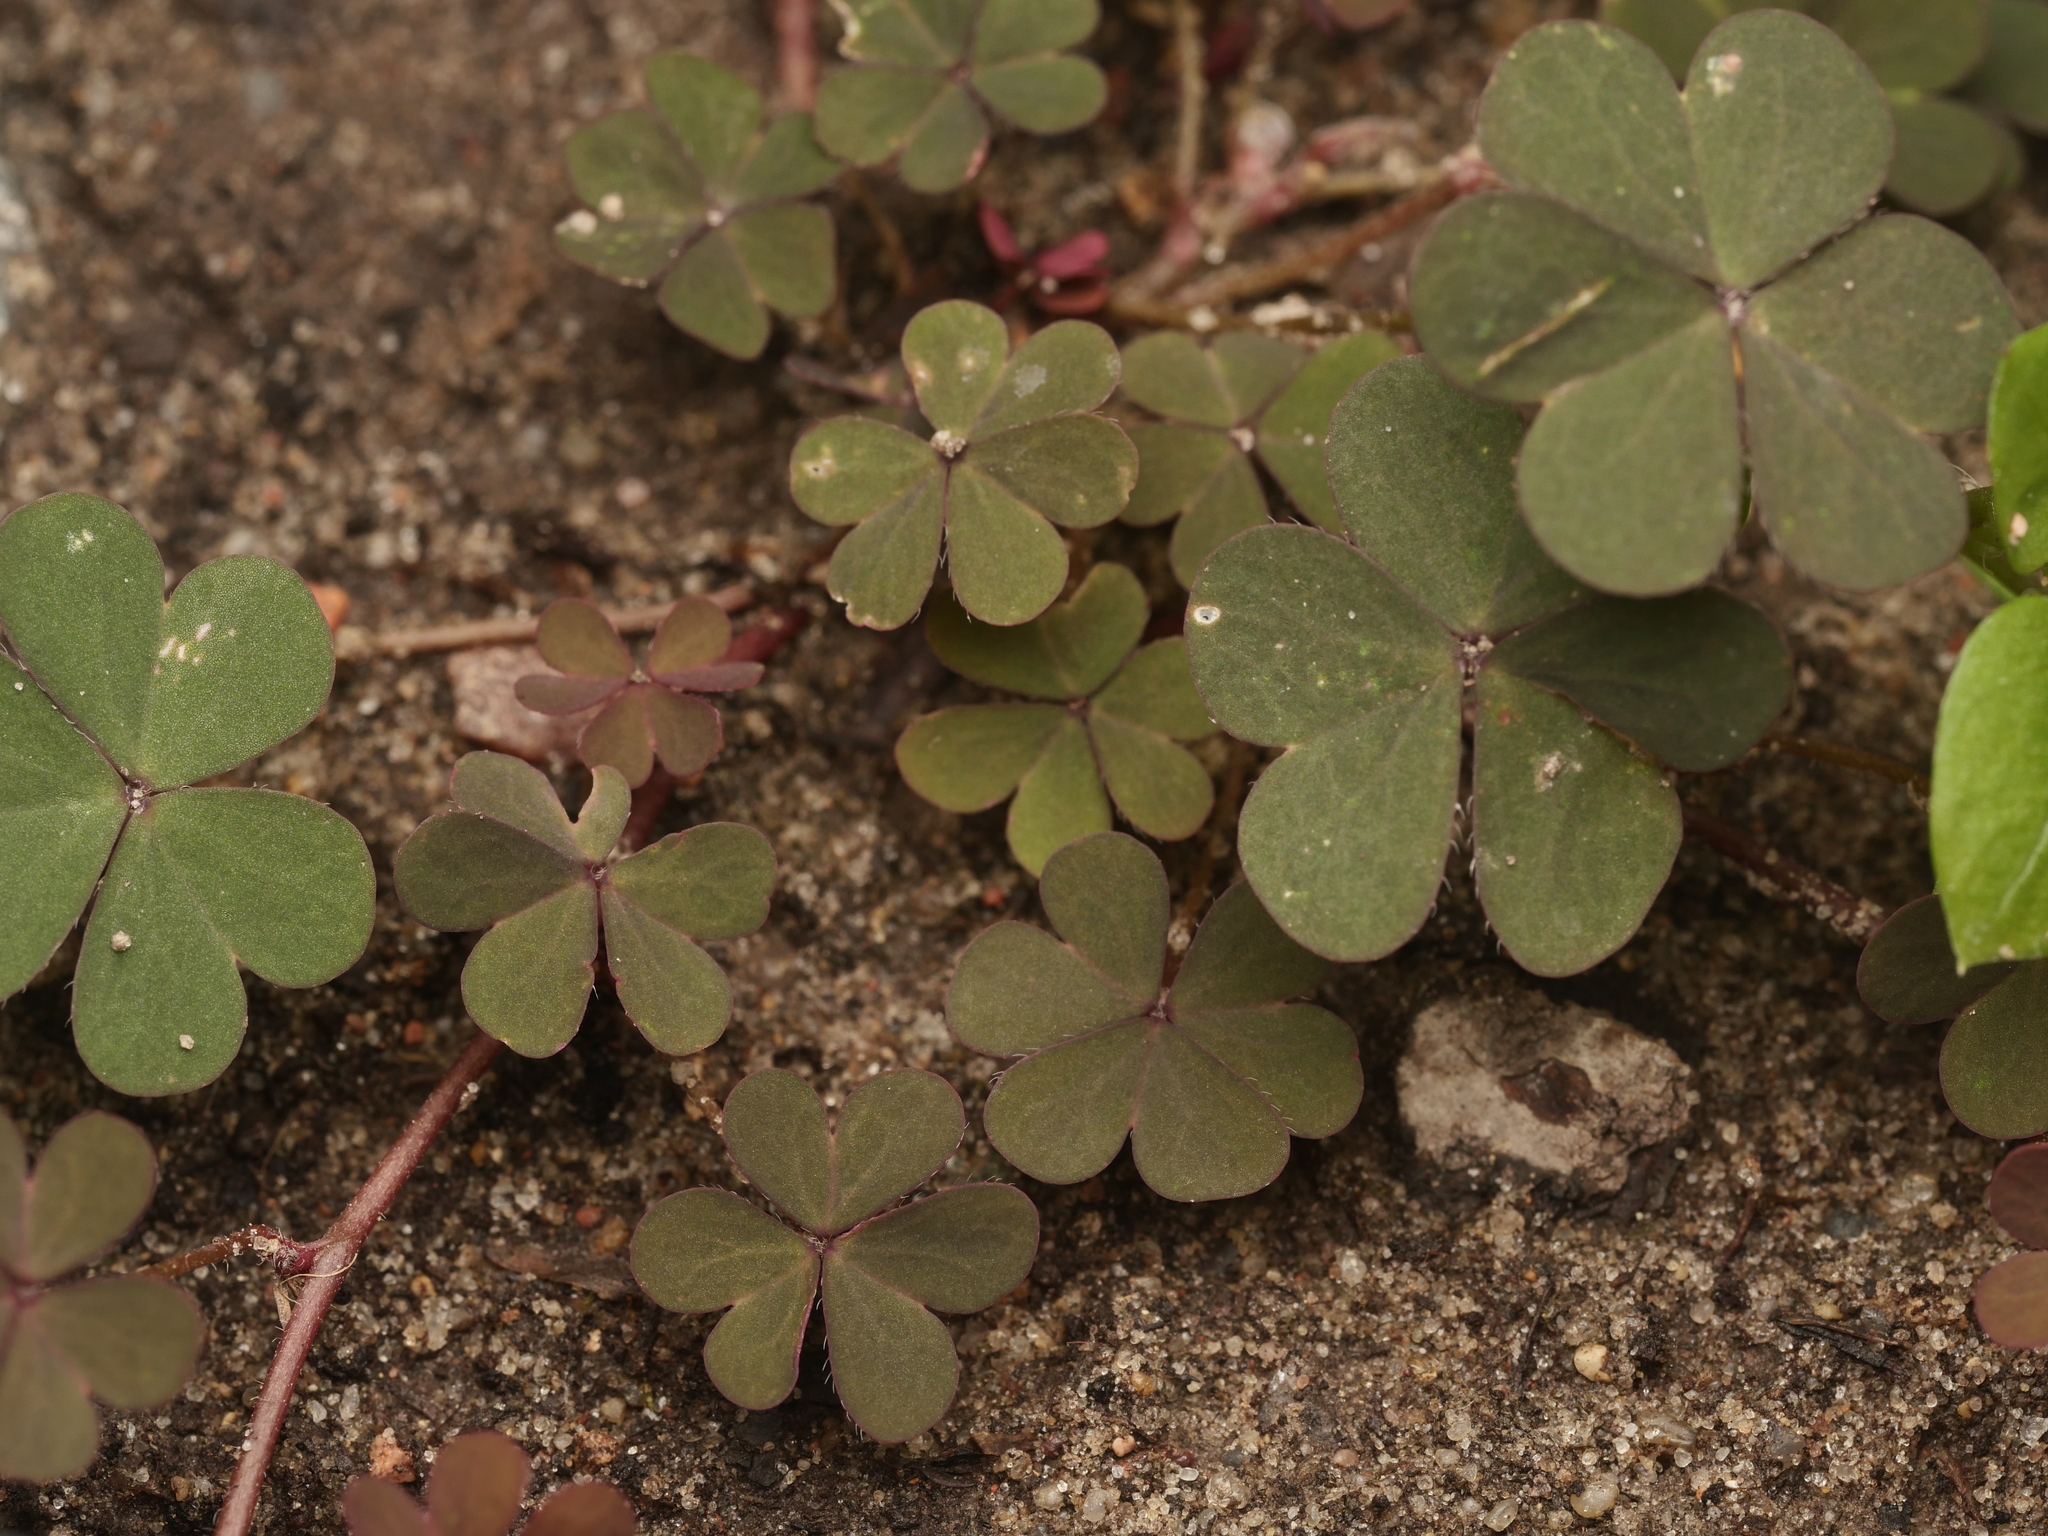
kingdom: Plantae
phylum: Tracheophyta
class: Magnoliopsida
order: Oxalidales
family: Oxalidaceae
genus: Oxalis
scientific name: Oxalis corniculata
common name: Procumbent yellow-sorrel
